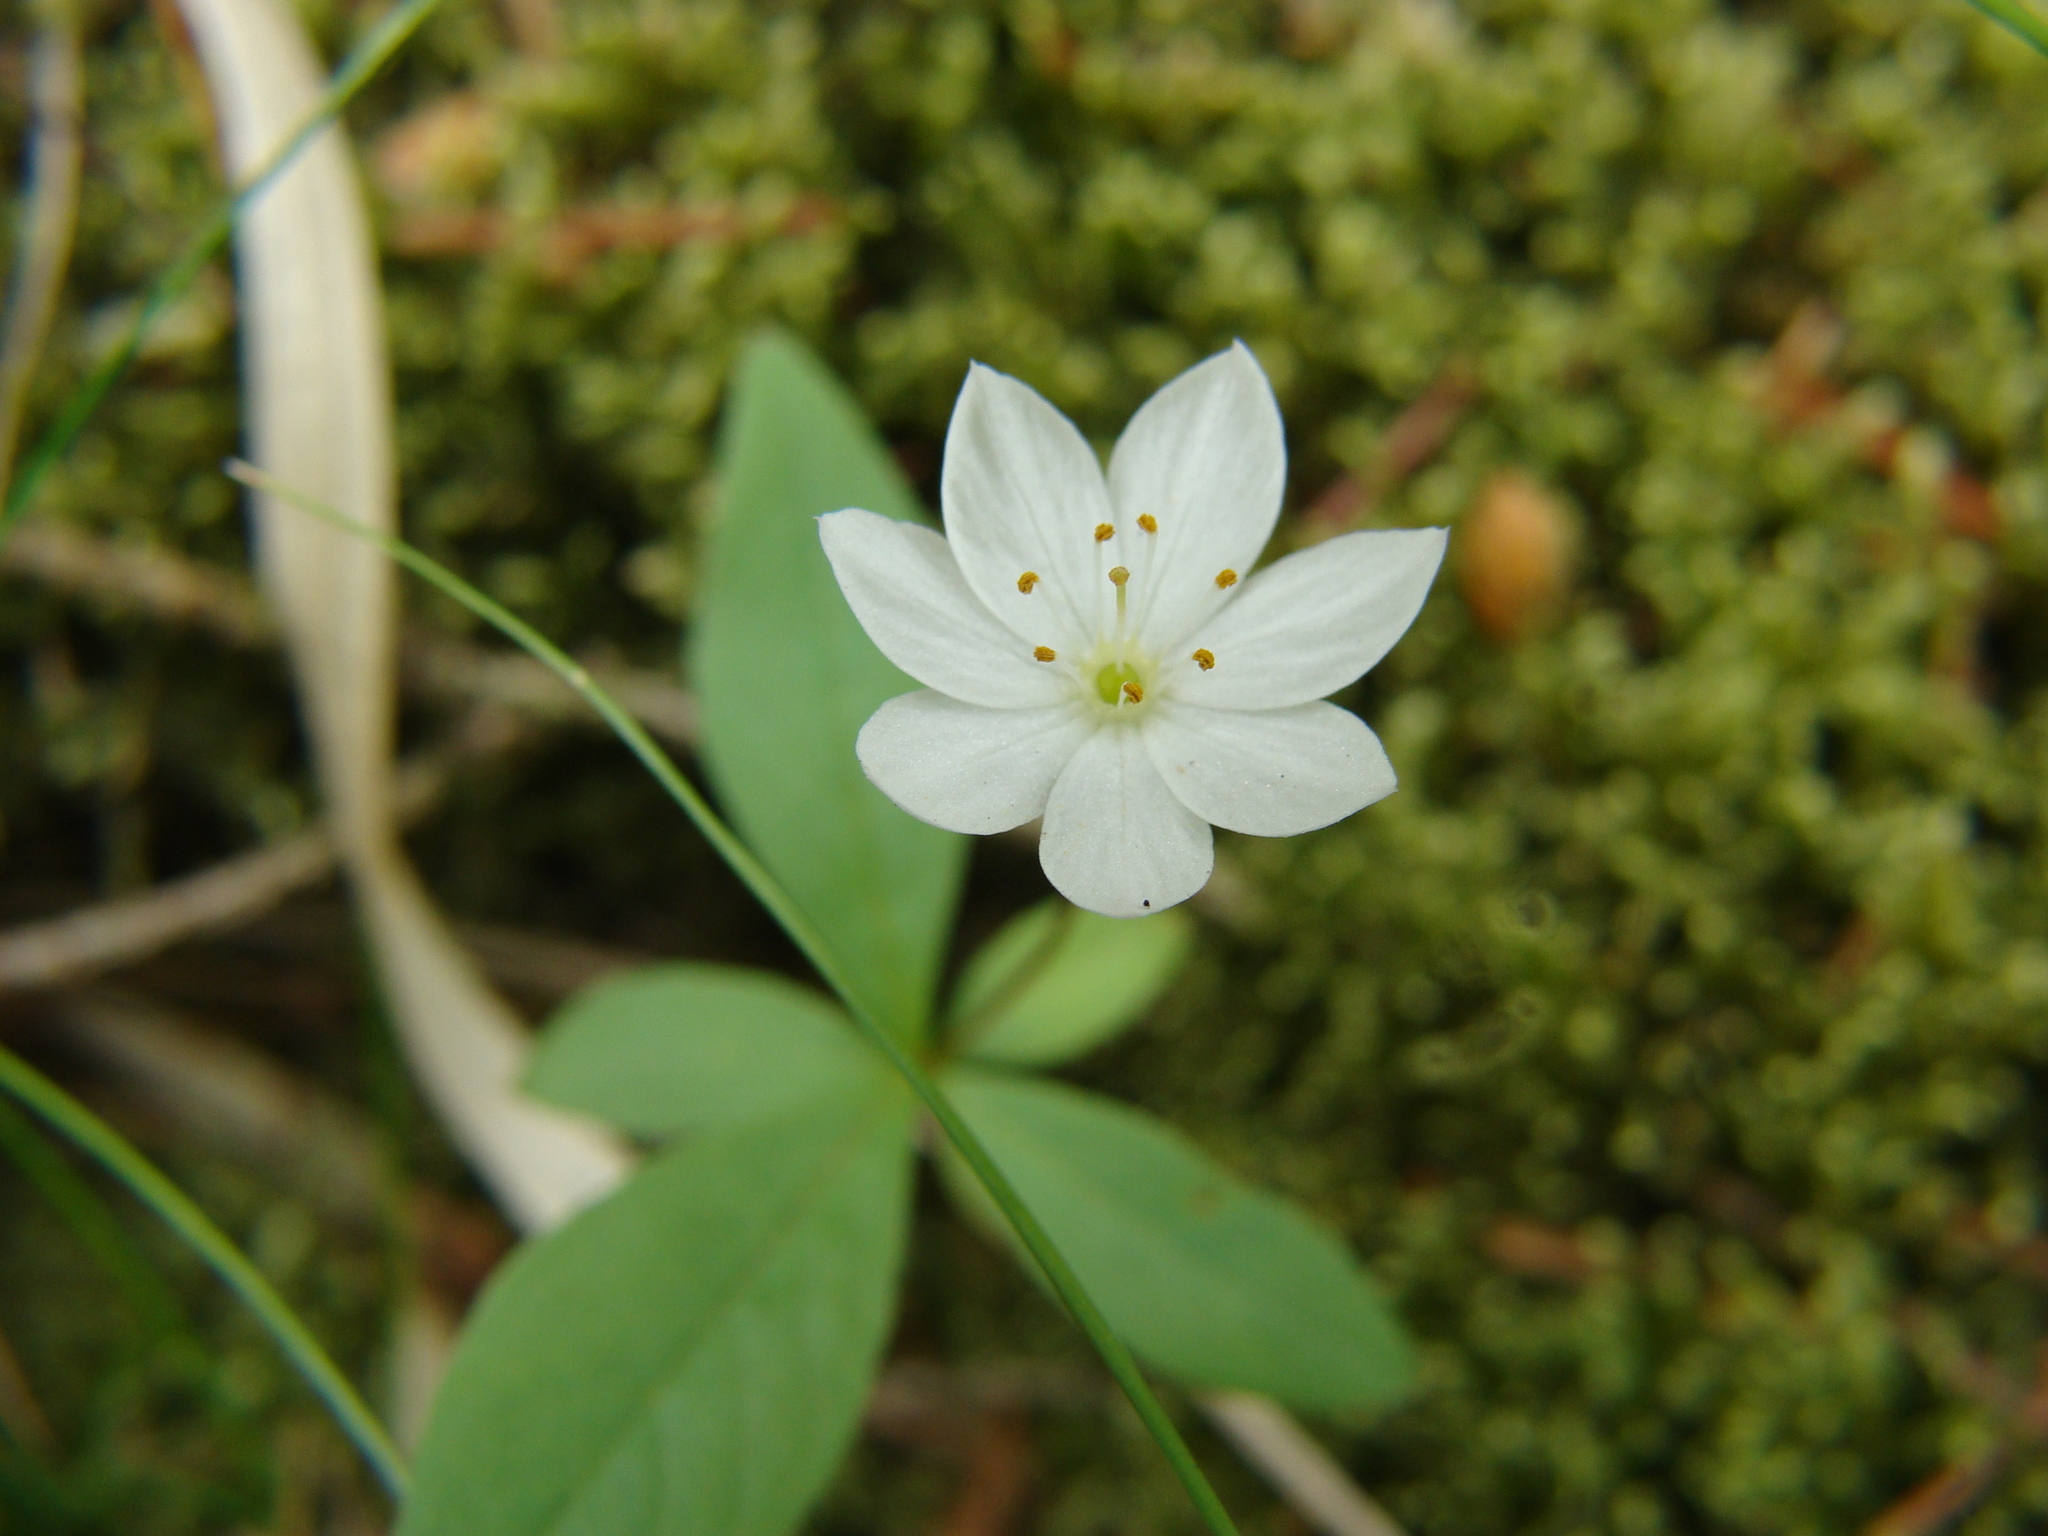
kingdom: Plantae
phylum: Tracheophyta
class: Magnoliopsida
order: Ericales
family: Primulaceae
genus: Lysimachia
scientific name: Lysimachia europaea
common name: Arctic starflower
